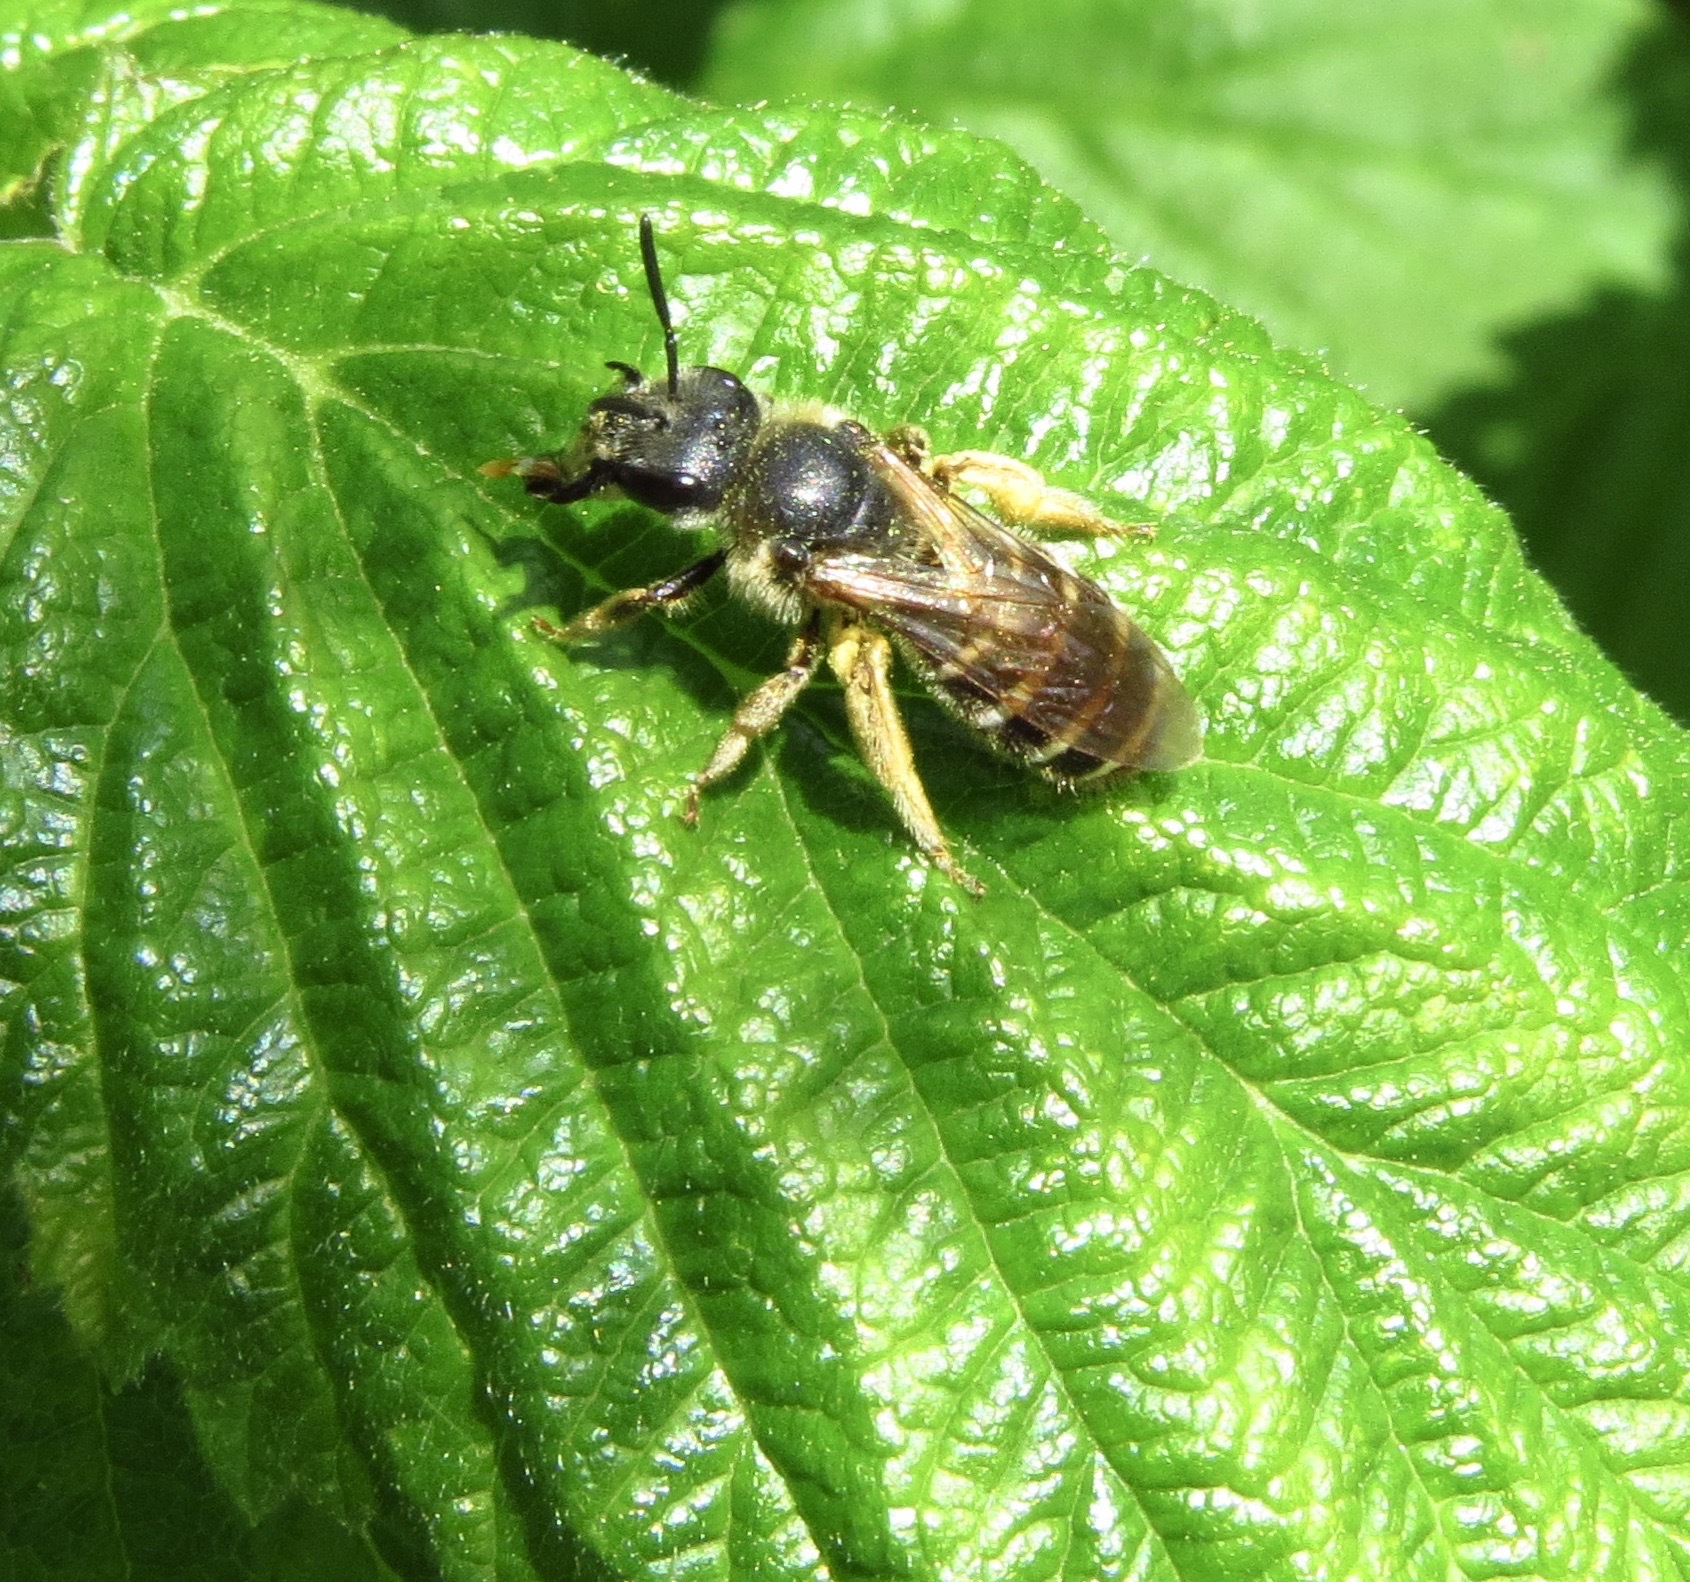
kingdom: Animalia
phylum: Arthropoda
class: Insecta
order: Hymenoptera
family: Halictidae
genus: Halictus
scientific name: Halictus rubicundus
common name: Orange-legged furrow bee
